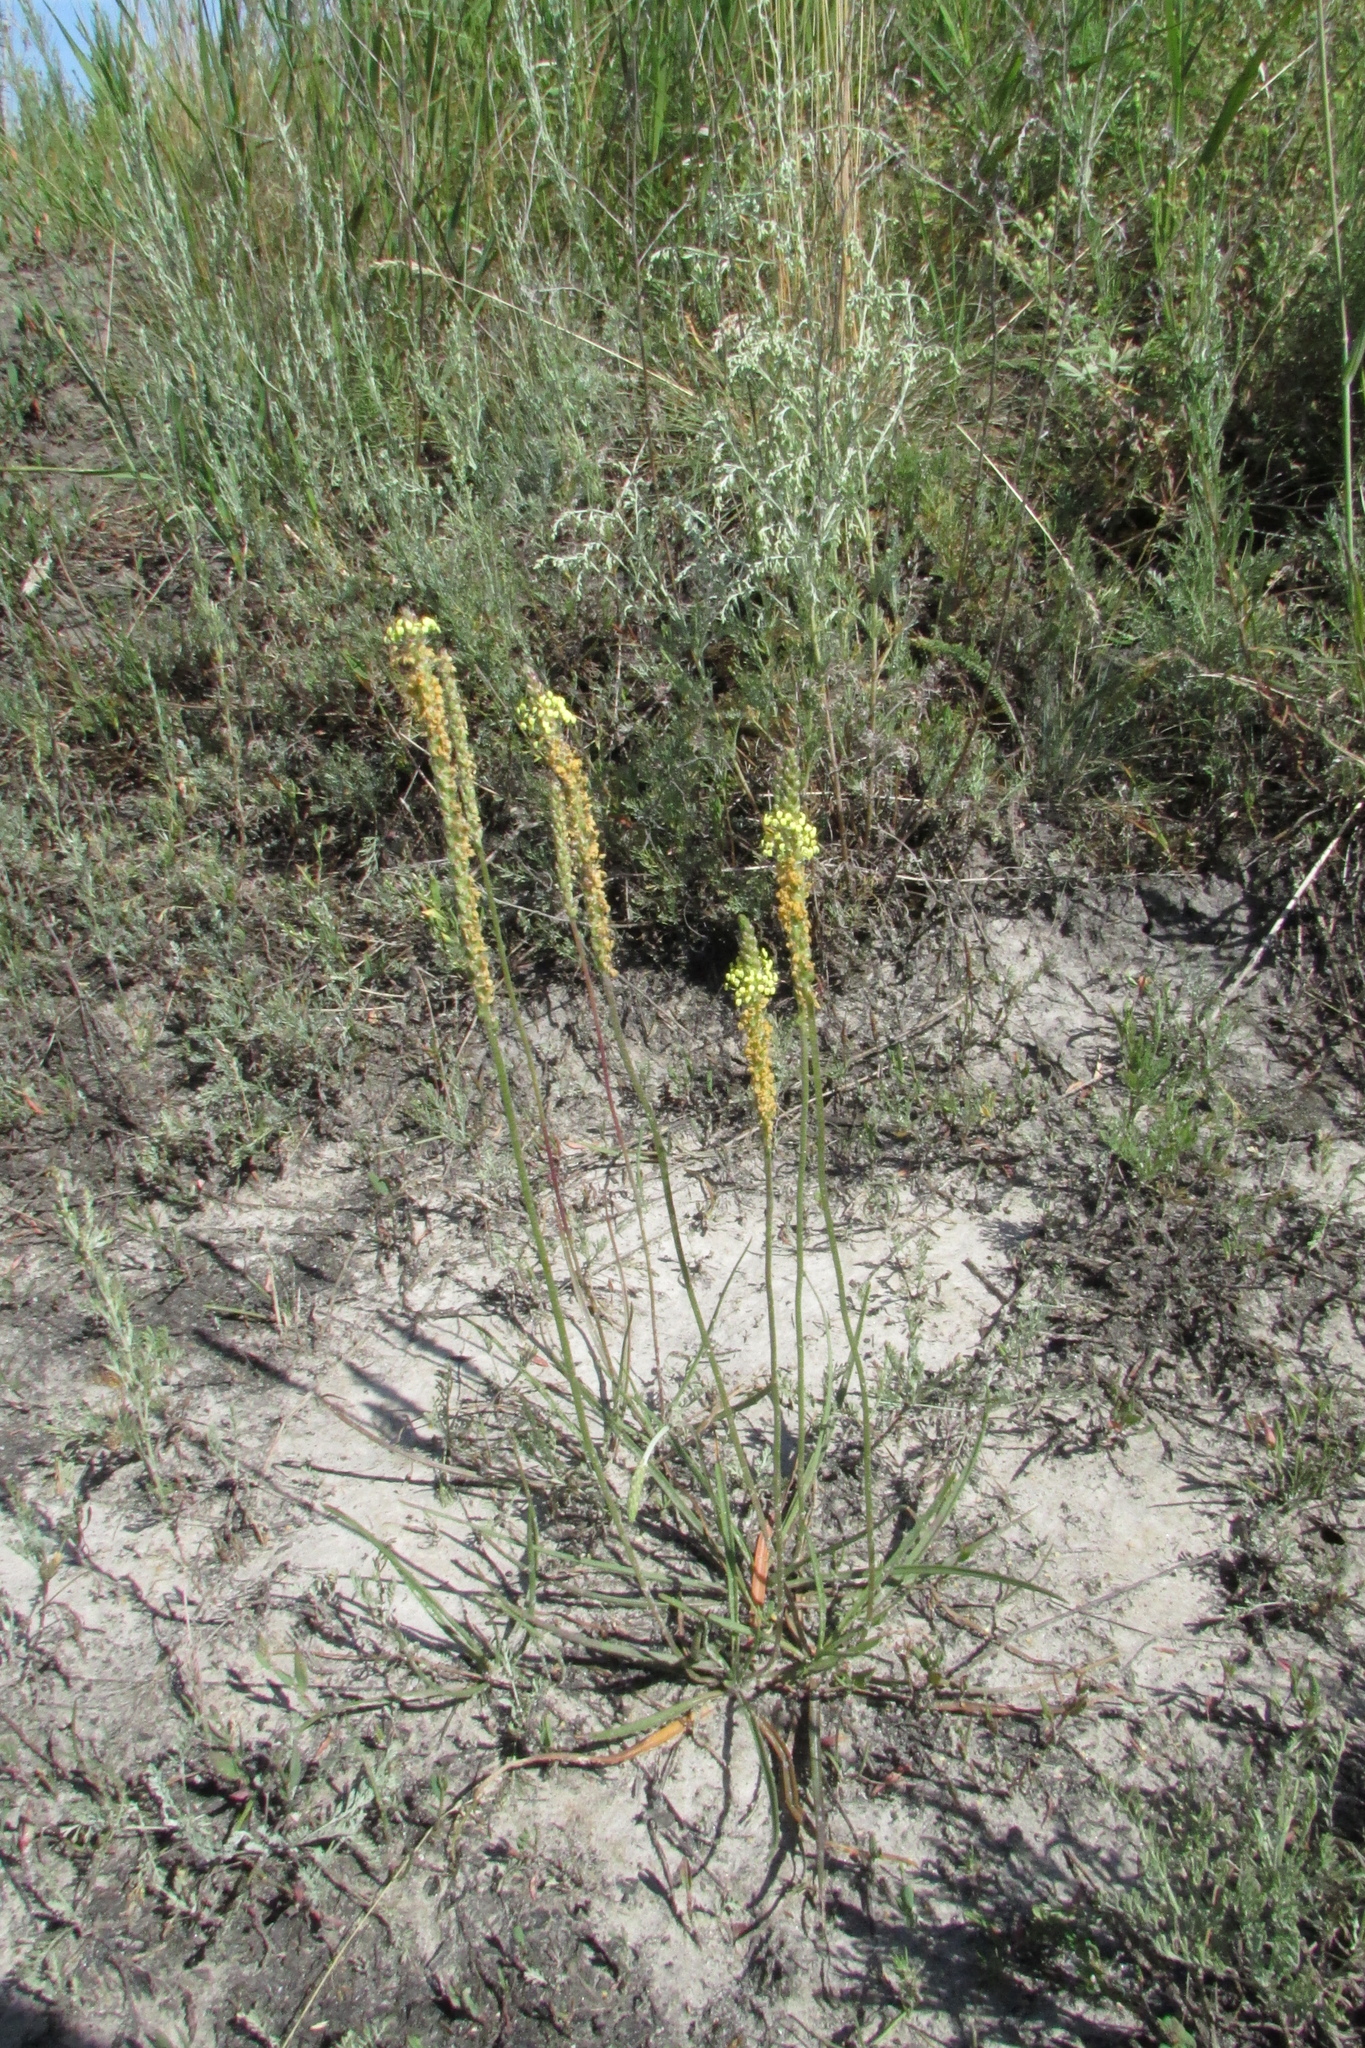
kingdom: Plantae
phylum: Tracheophyta
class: Magnoliopsida
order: Lamiales
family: Plantaginaceae
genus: Plantago
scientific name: Plantago salsa
